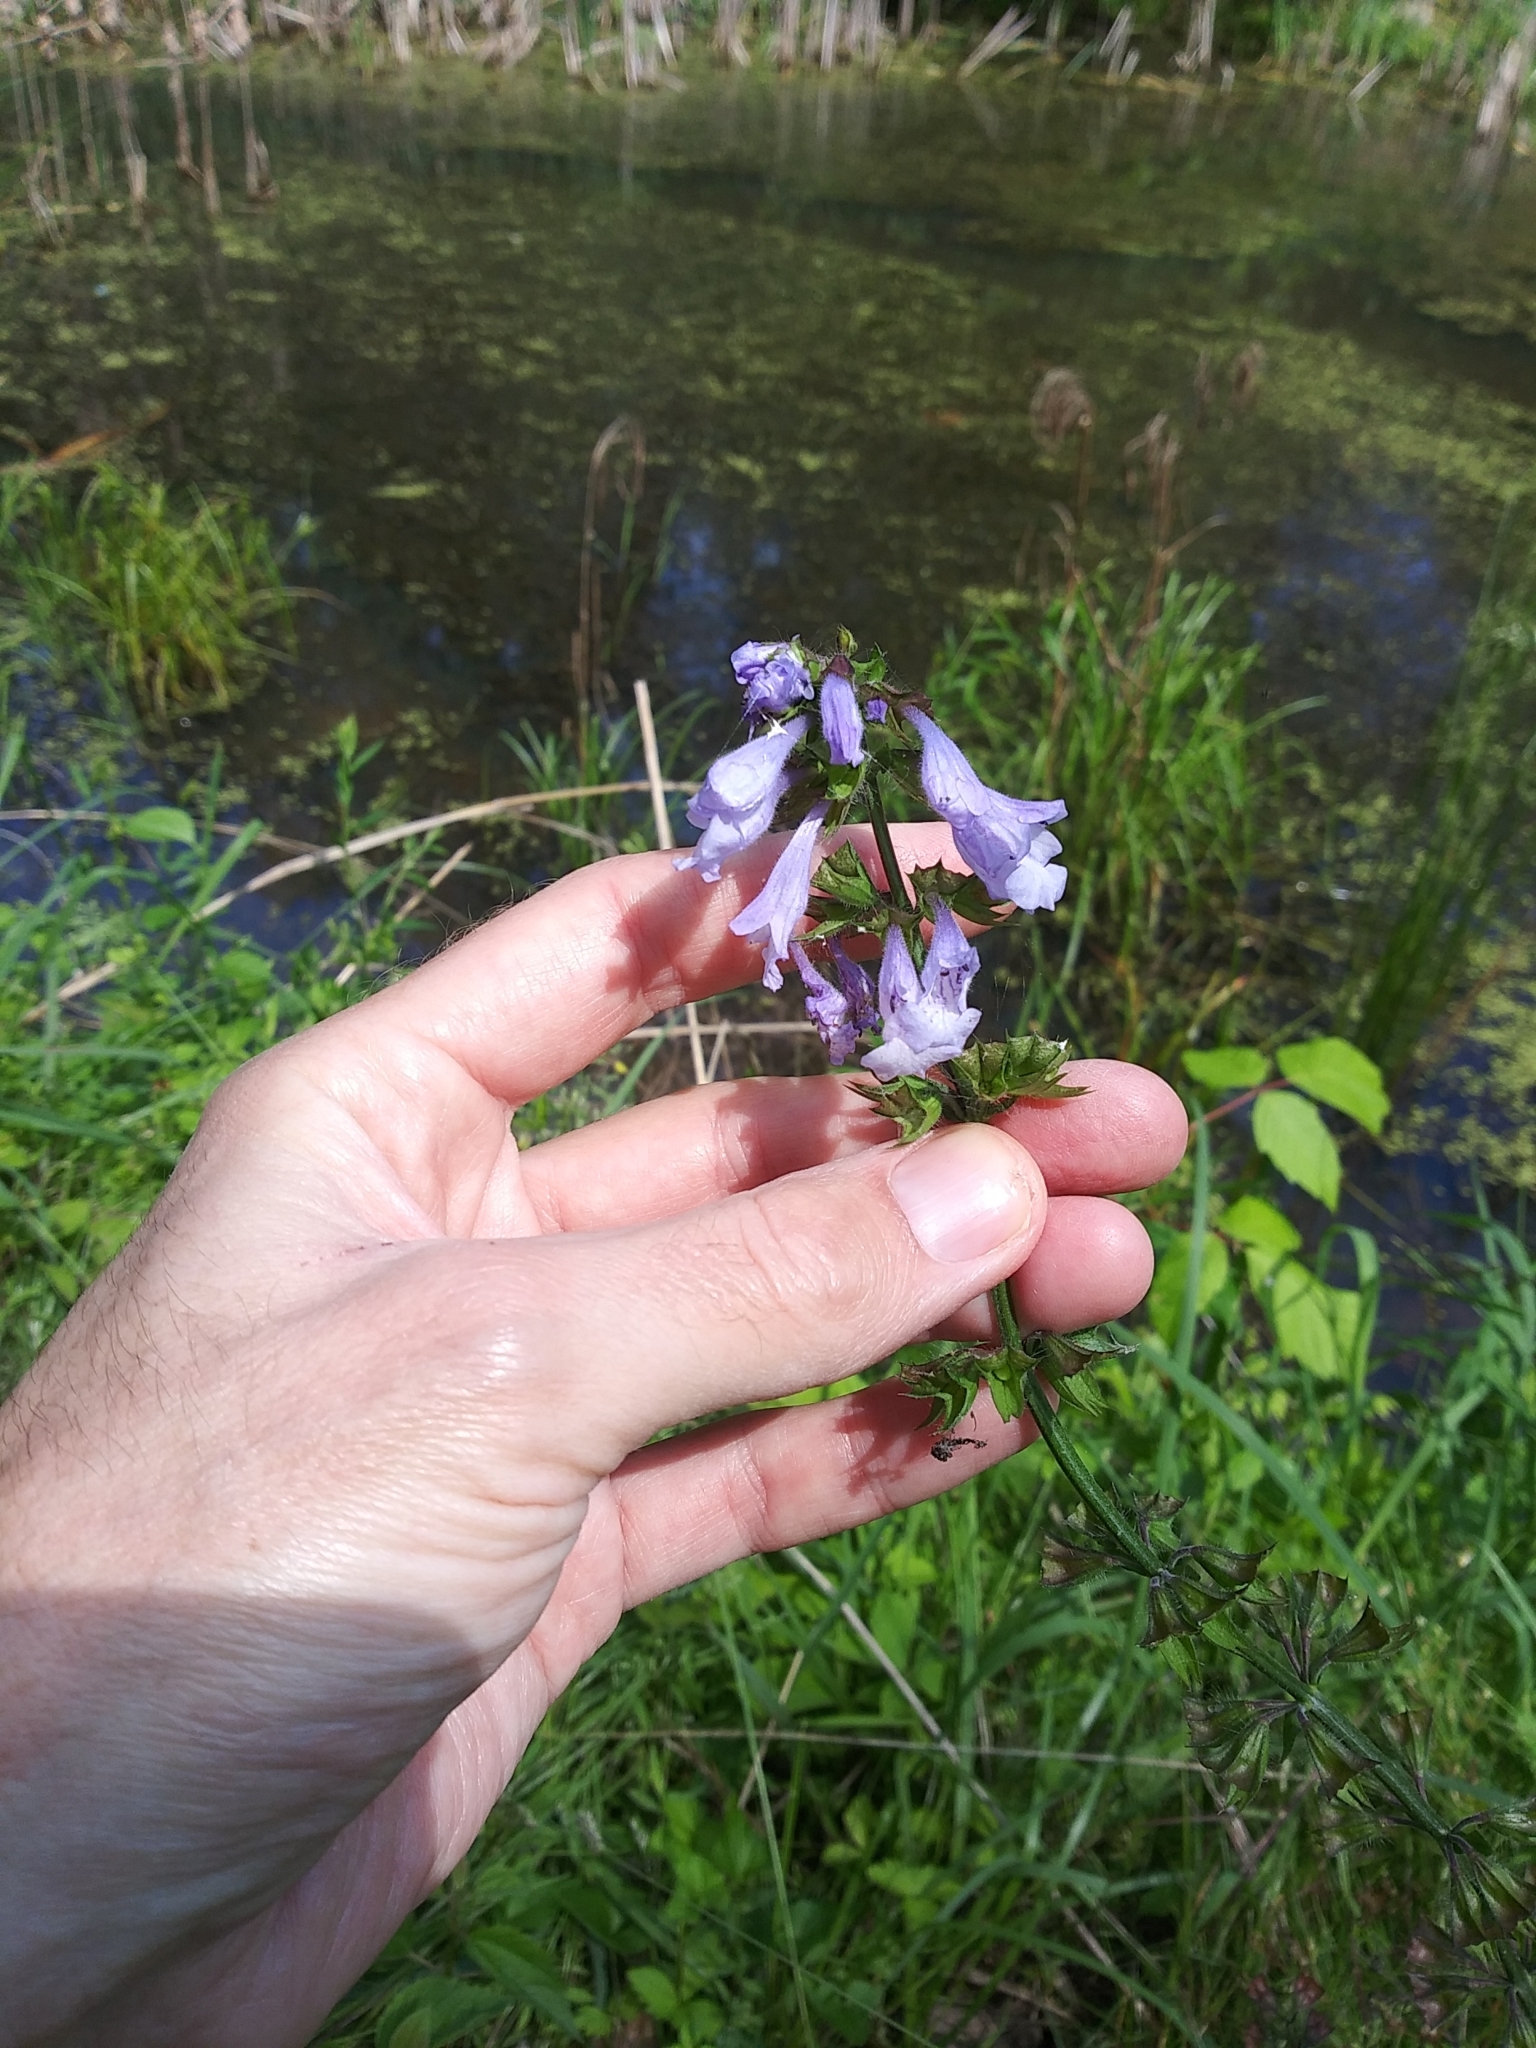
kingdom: Plantae
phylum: Tracheophyta
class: Magnoliopsida
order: Lamiales
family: Lamiaceae
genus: Salvia
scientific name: Salvia lyrata
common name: Cancerweed
